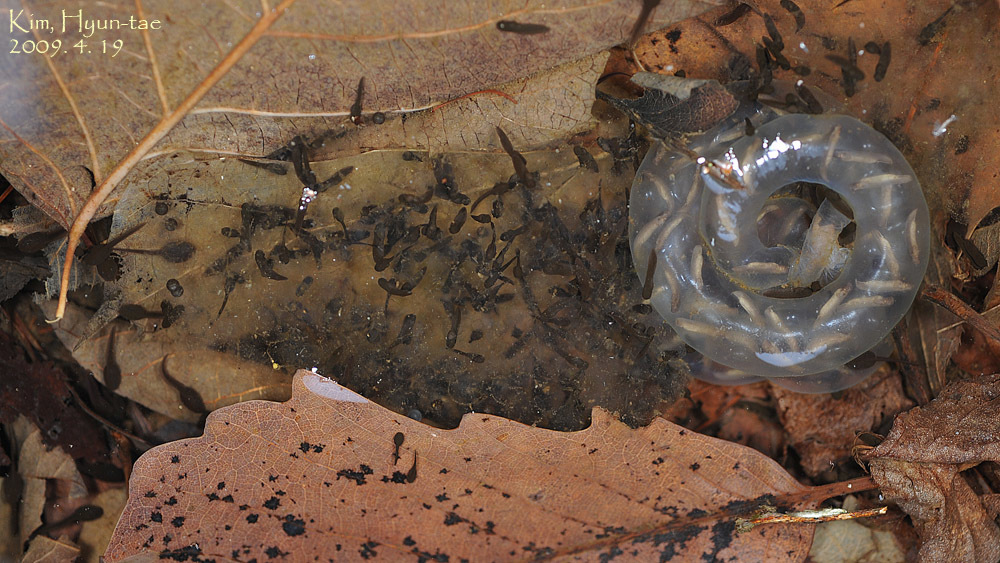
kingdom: Animalia
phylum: Chordata
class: Amphibia
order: Caudata
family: Hynobiidae
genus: Hynobius
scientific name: Hynobius leechii
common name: Gensan salamander
